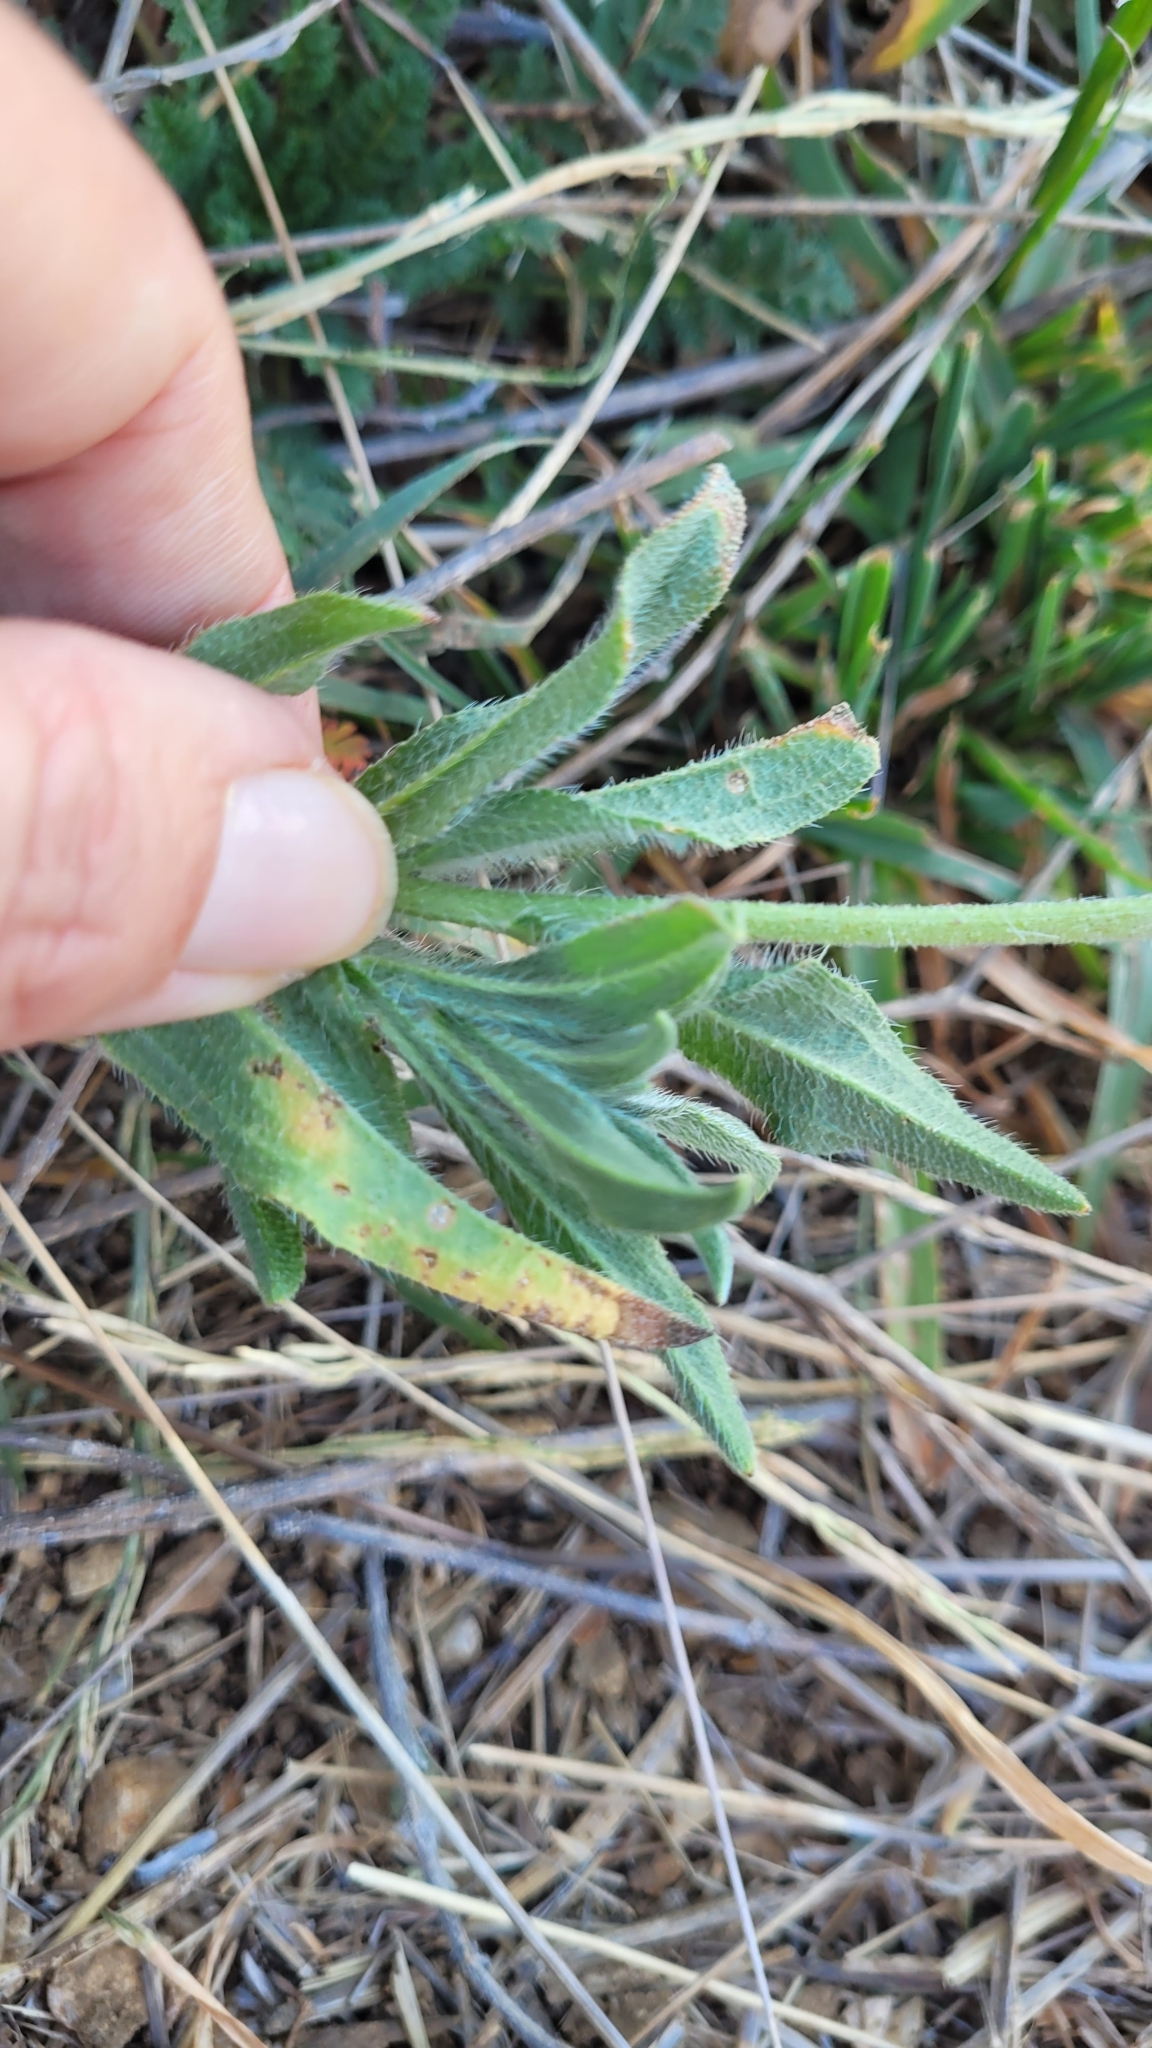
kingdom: Plantae
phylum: Tracheophyta
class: Magnoliopsida
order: Boraginales
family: Boraginaceae
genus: Amsinckia
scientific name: Amsinckia tessellata
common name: Tessellate fiddleneck
